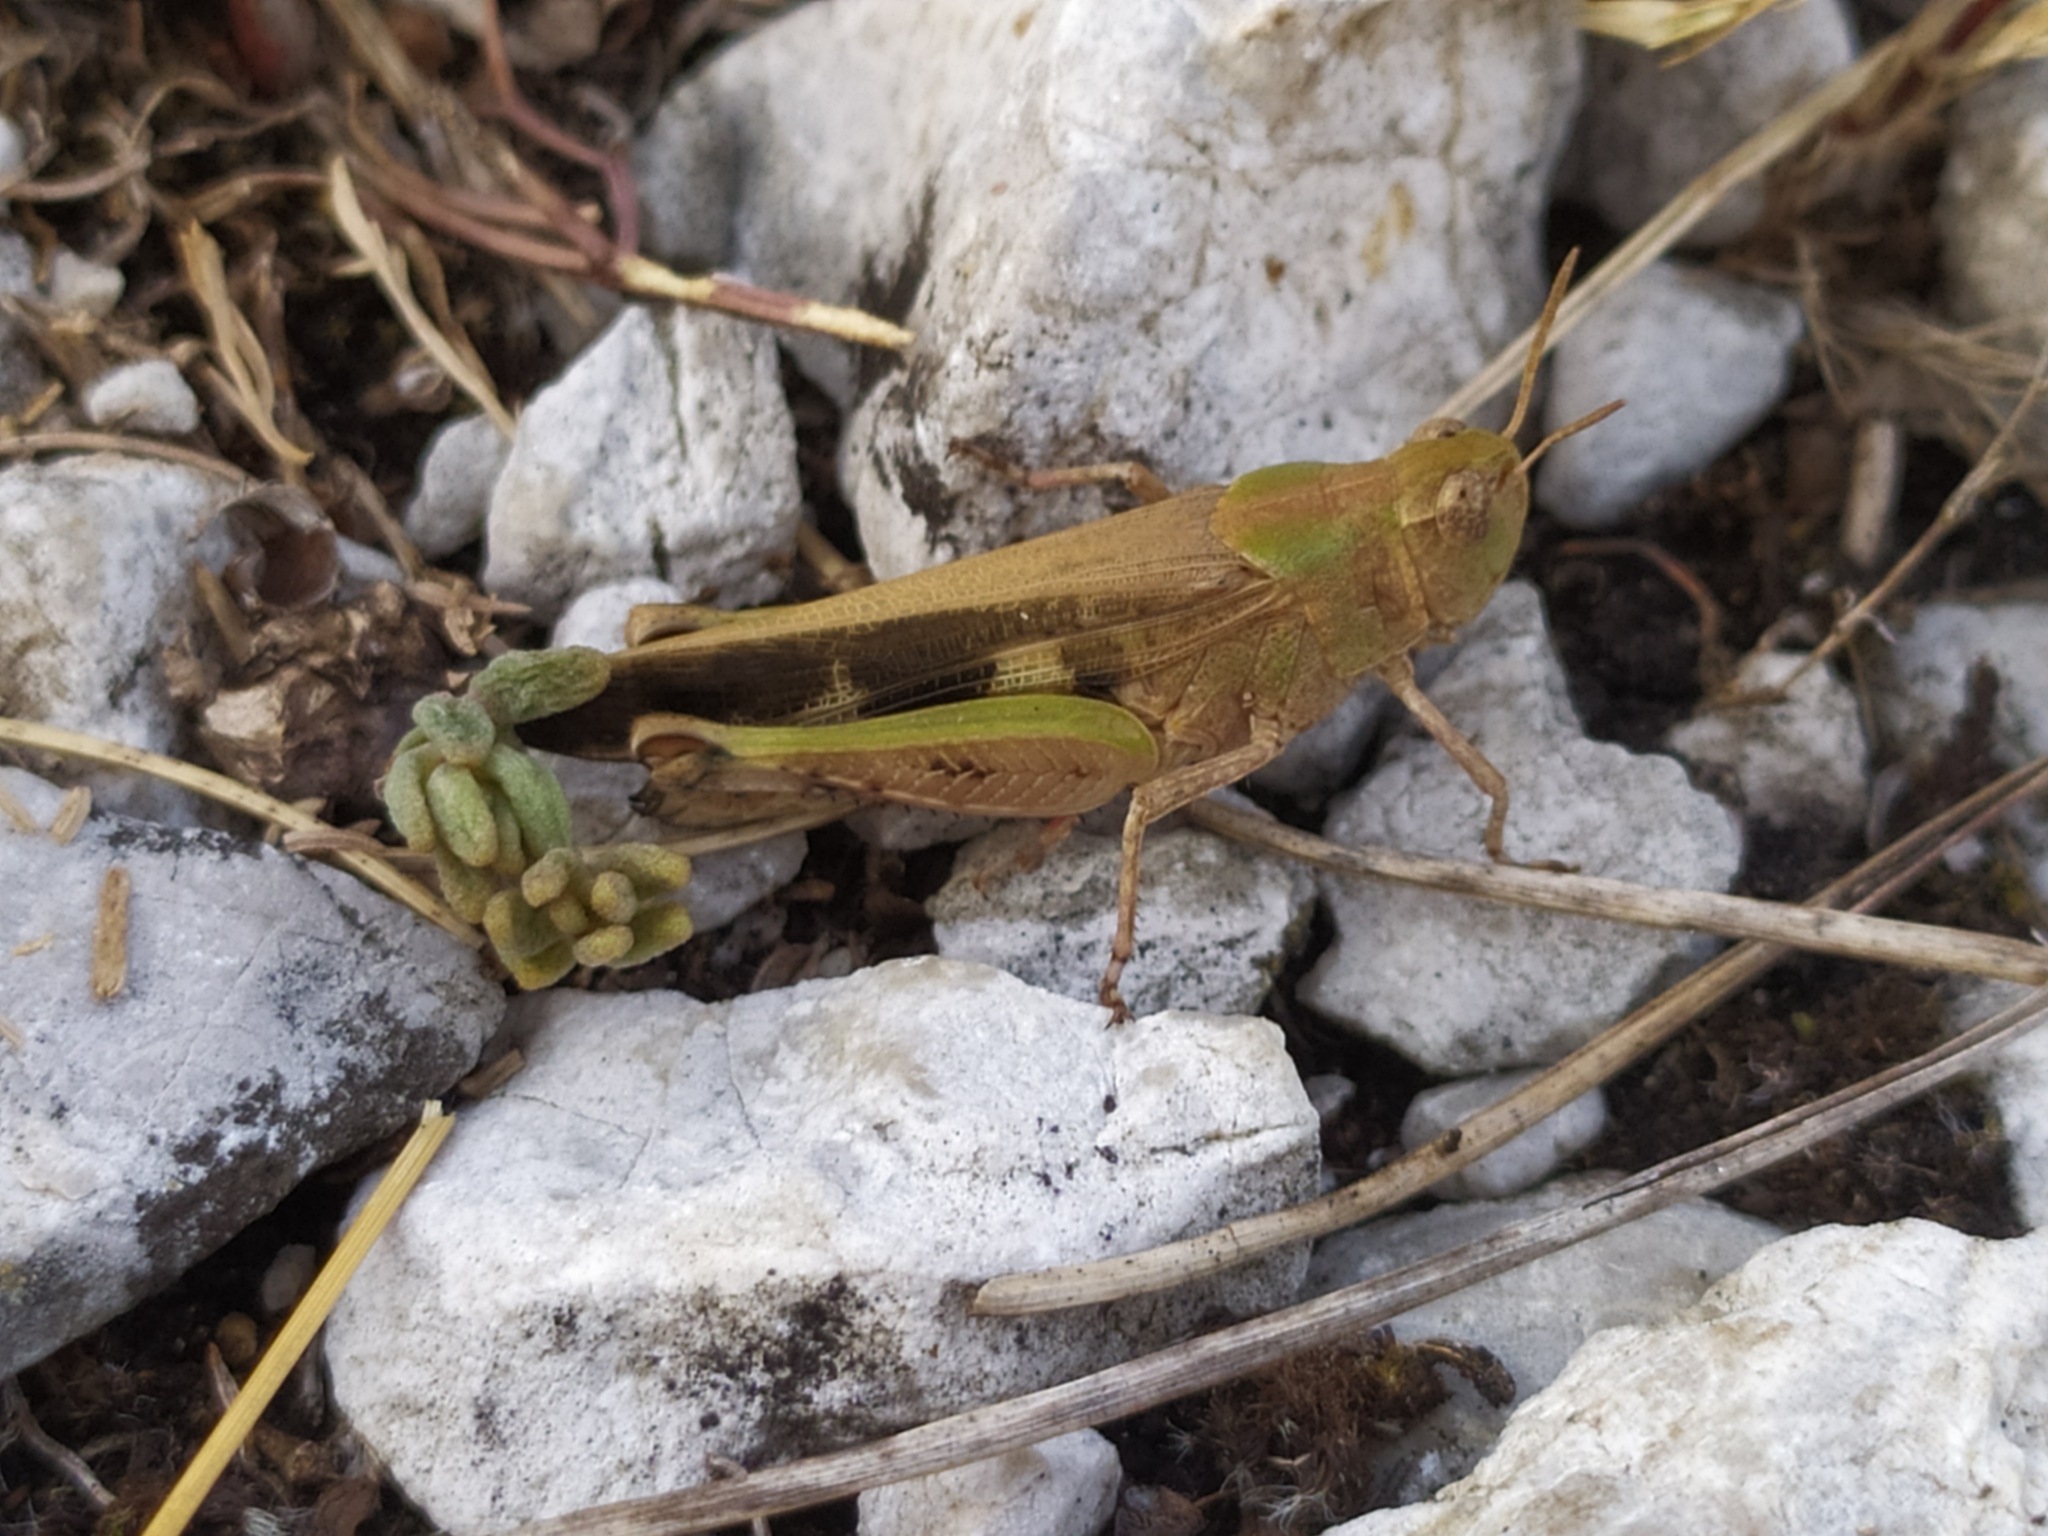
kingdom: Animalia
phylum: Arthropoda
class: Insecta
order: Orthoptera
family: Acrididae
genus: Aiolopus
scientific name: Aiolopus strepens
